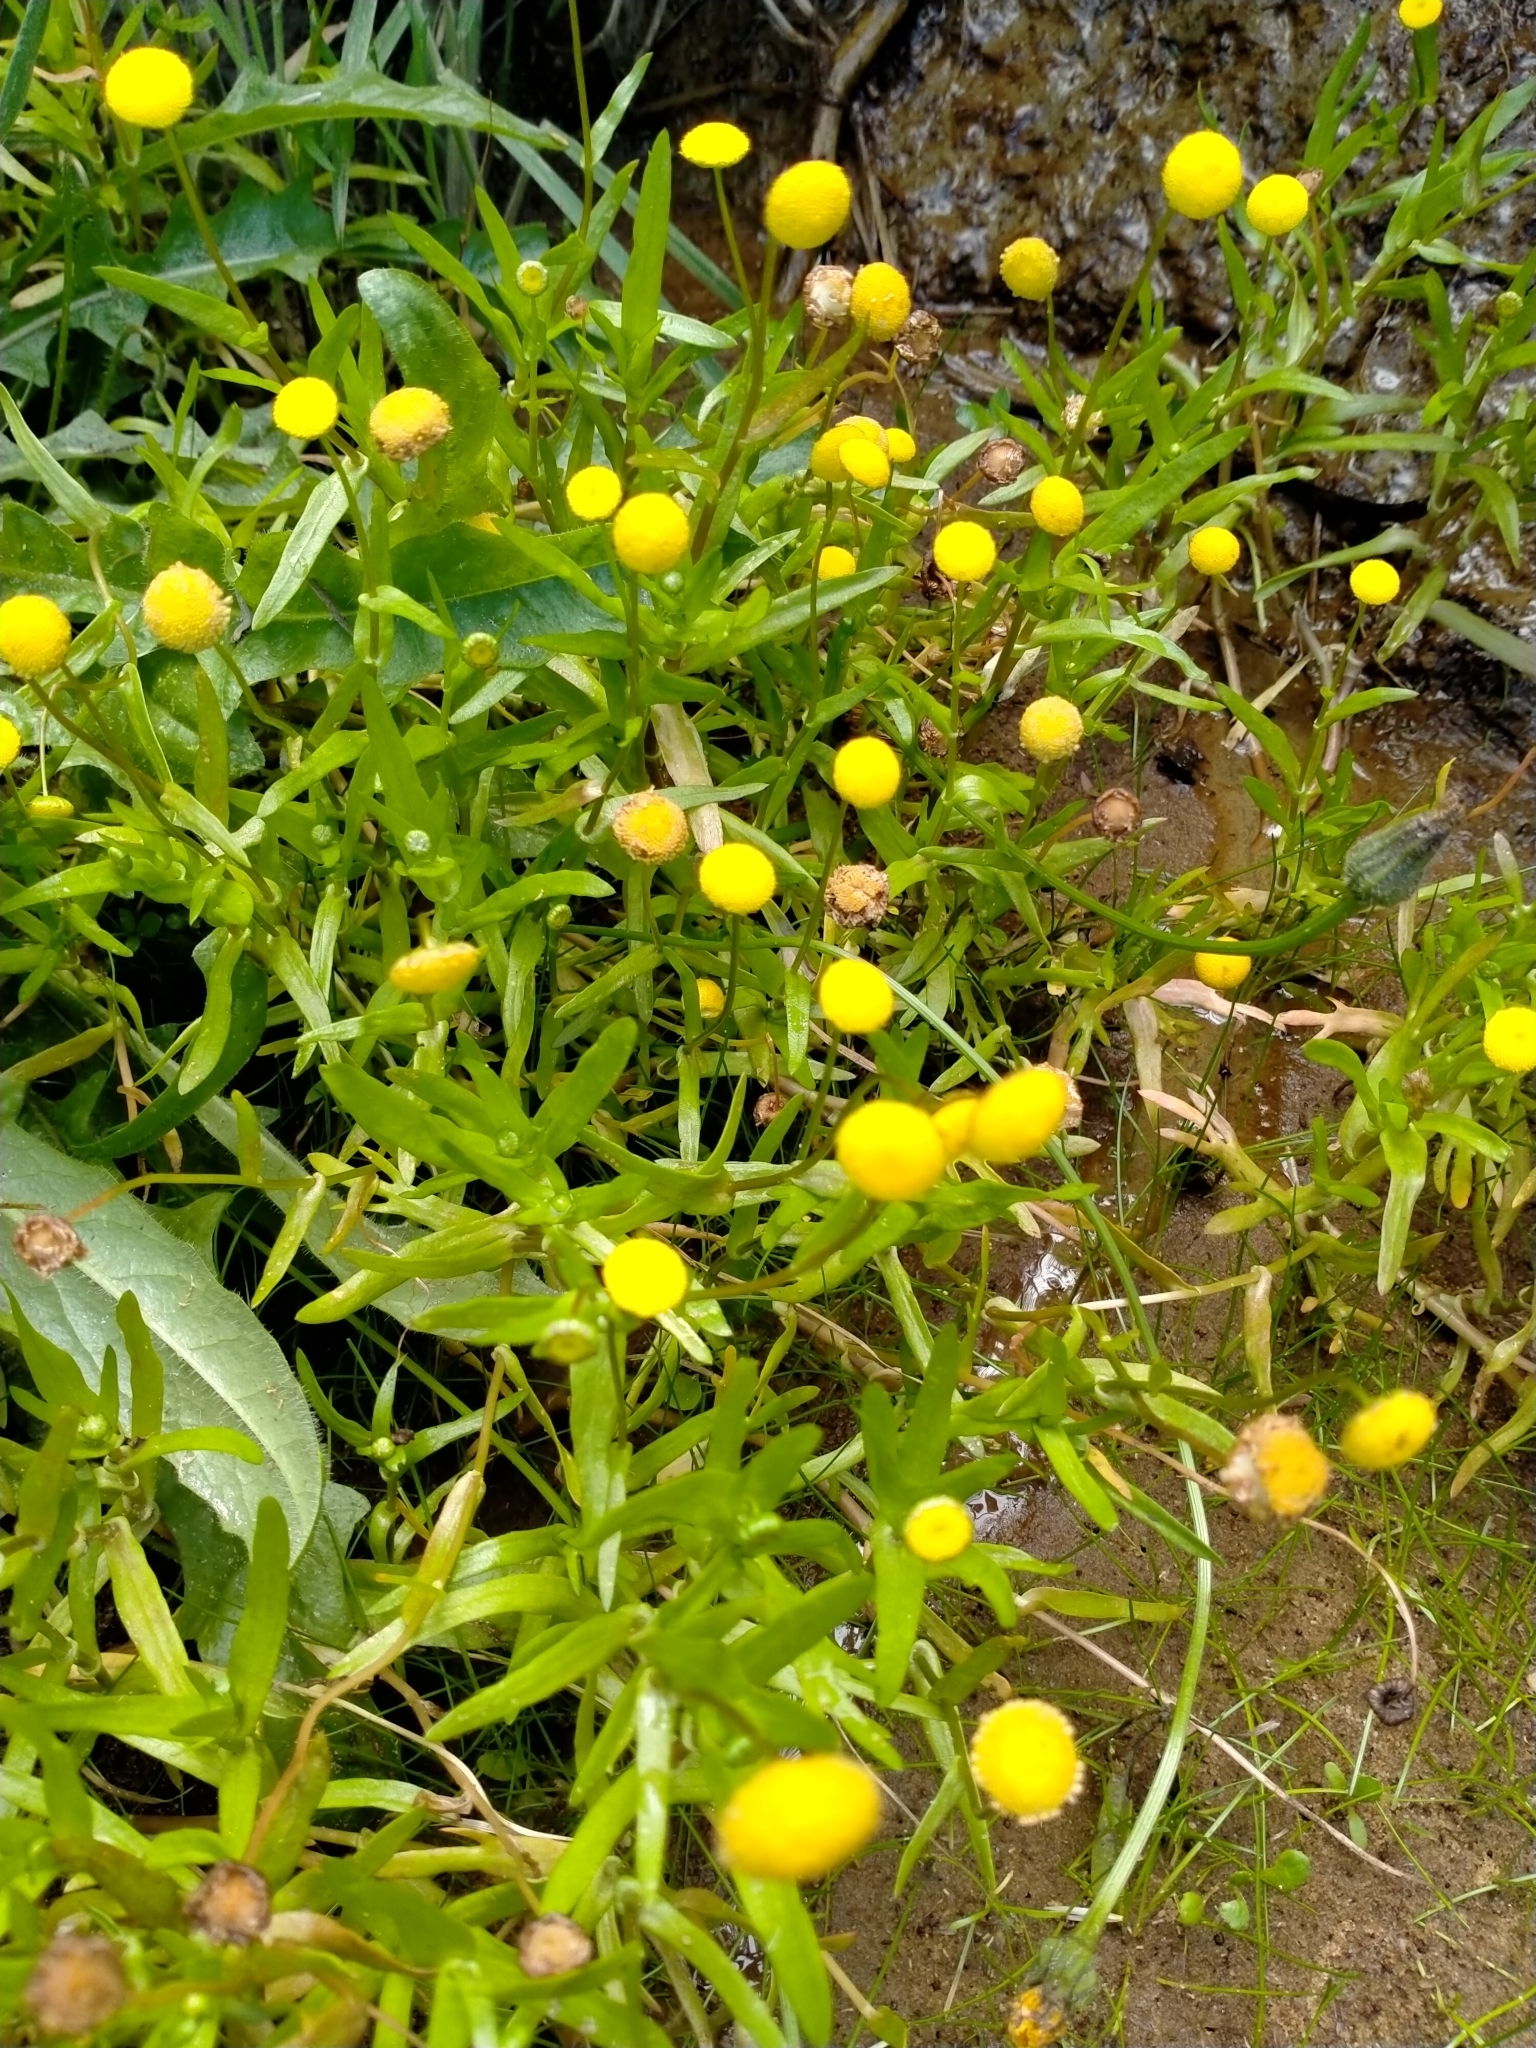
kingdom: Plantae
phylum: Tracheophyta
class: Magnoliopsida
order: Asterales
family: Asteraceae
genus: Cotula
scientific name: Cotula coronopifolia
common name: Buttonweed
